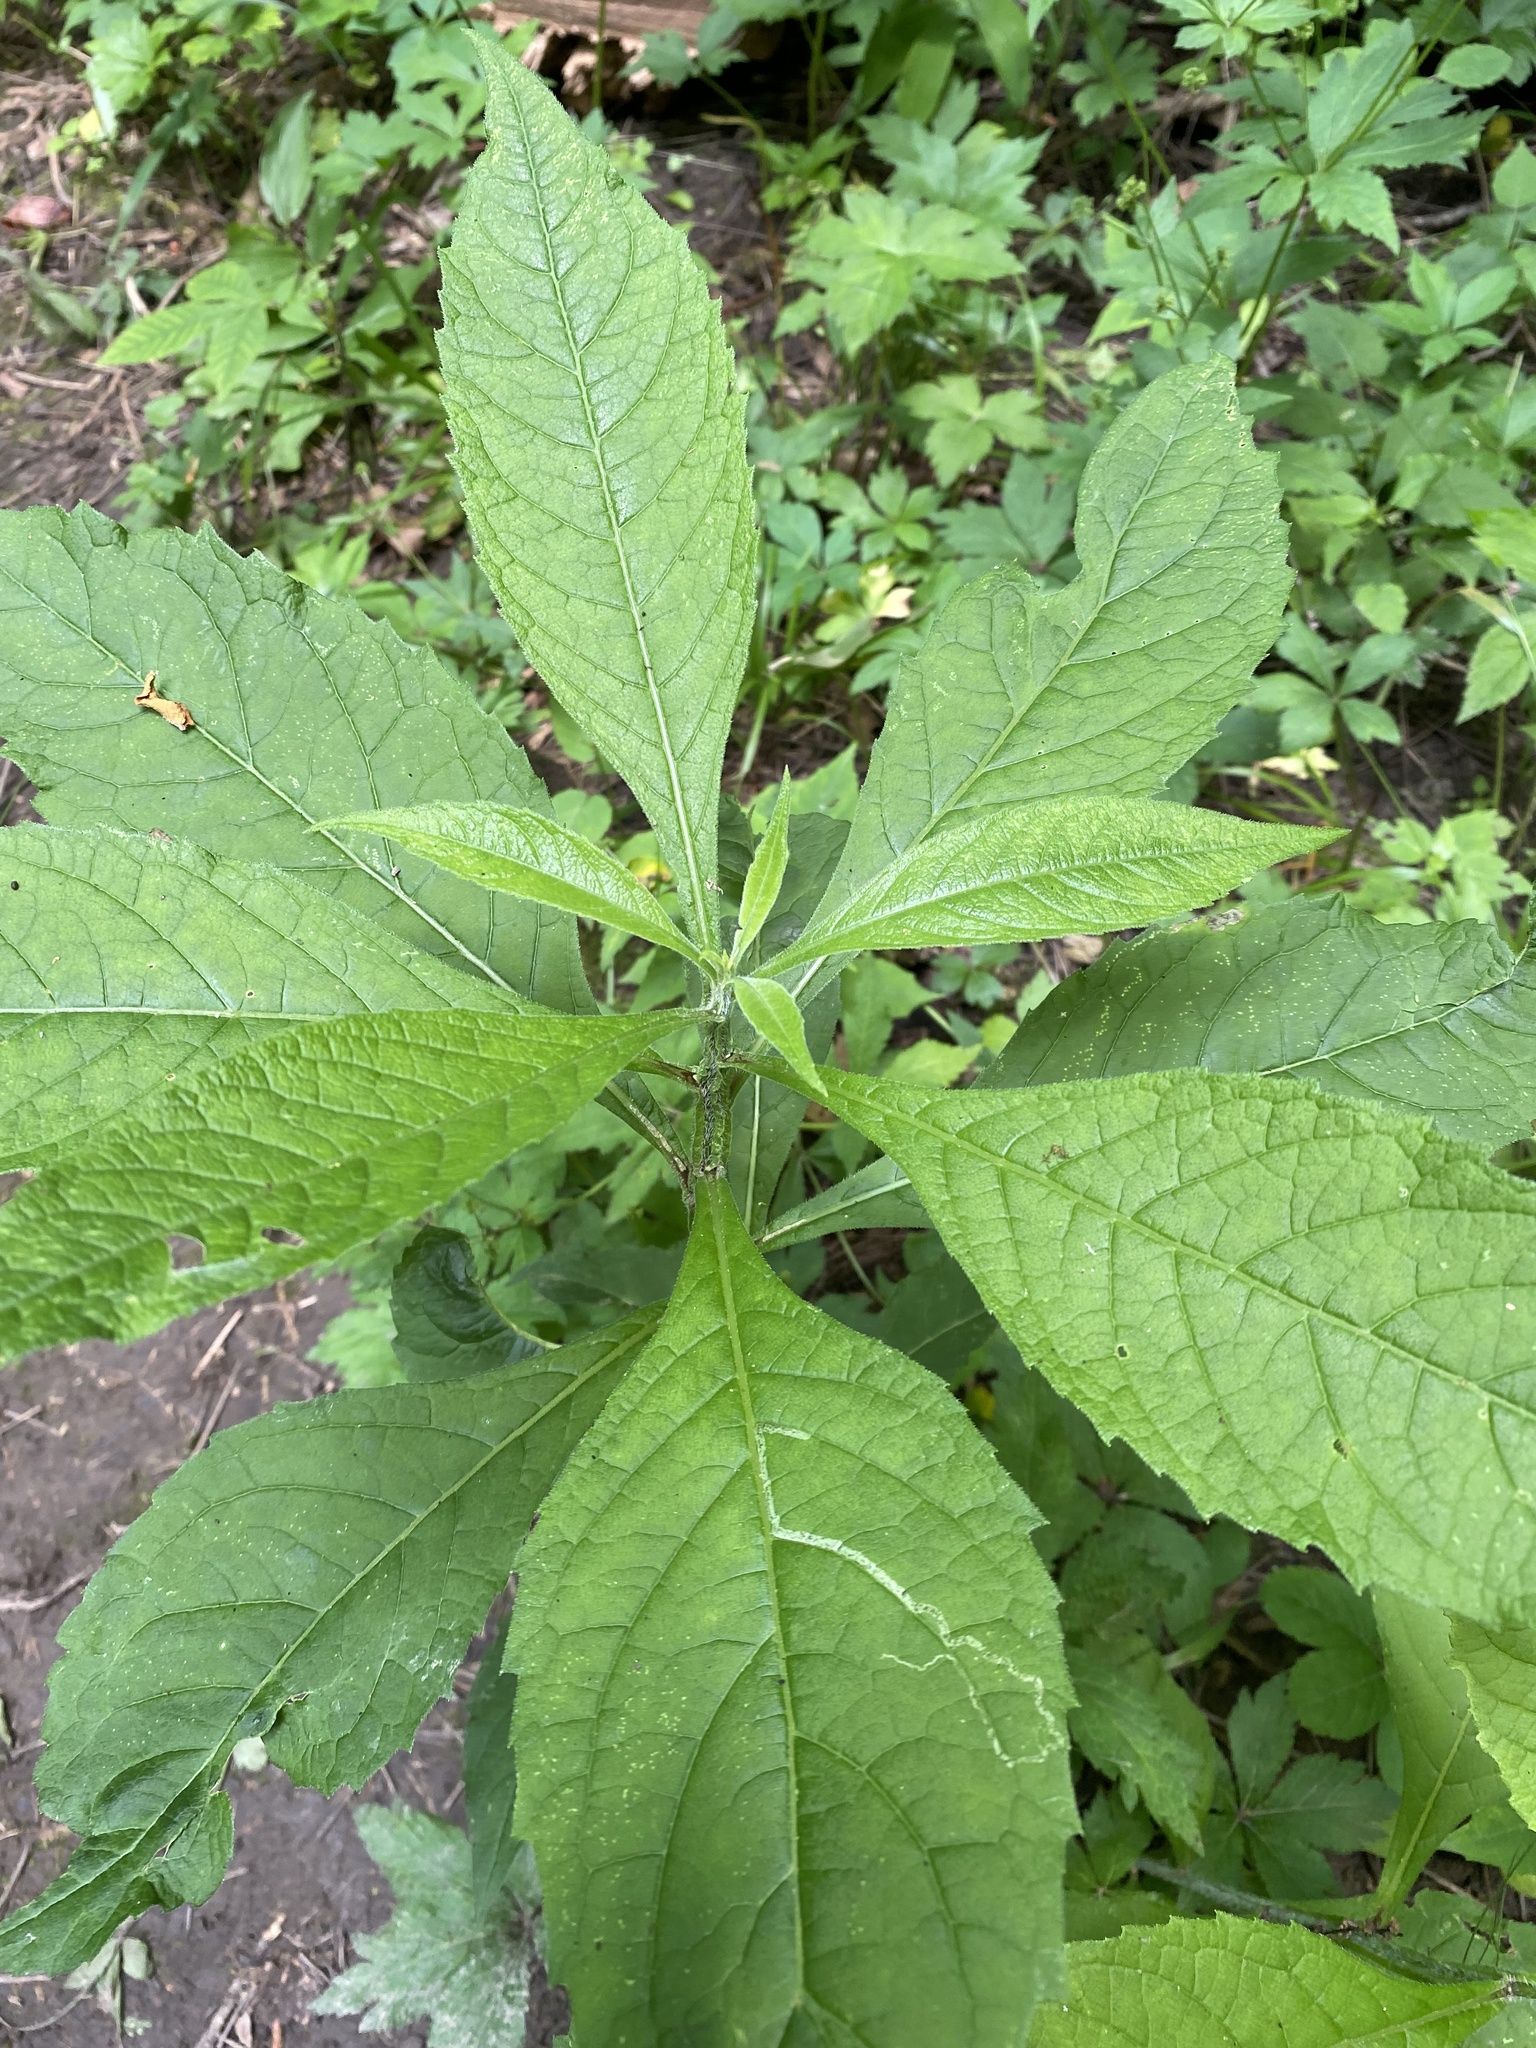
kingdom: Plantae
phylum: Tracheophyta
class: Magnoliopsida
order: Asterales
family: Asteraceae
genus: Verbesina
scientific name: Verbesina alternifolia
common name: Wingstem
